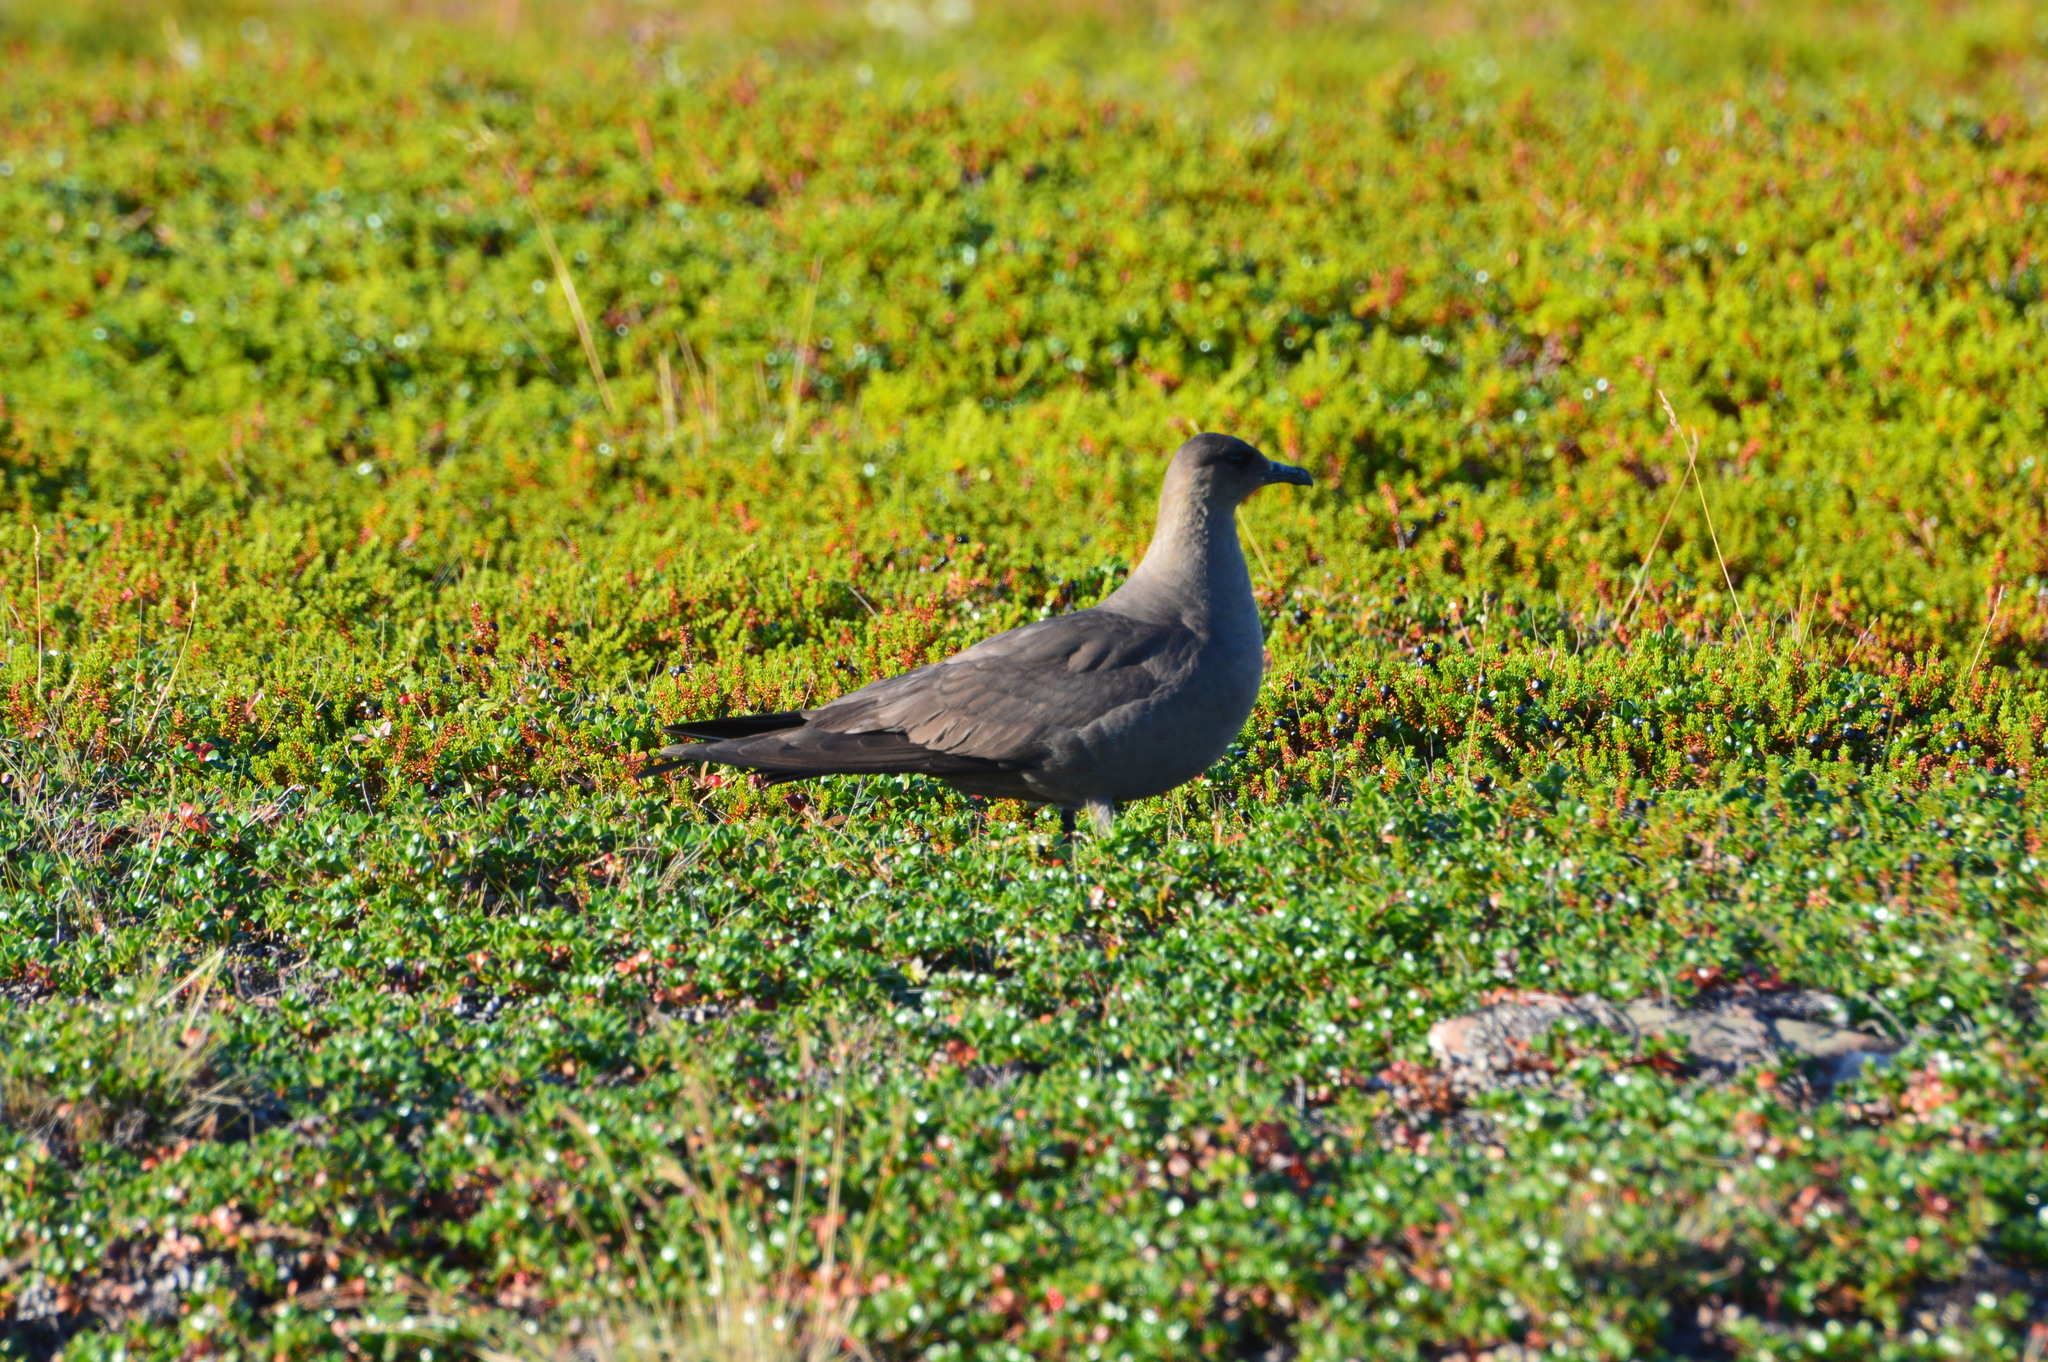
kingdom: Animalia
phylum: Chordata
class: Aves
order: Charadriiformes
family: Stercorariidae
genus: Stercorarius
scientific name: Stercorarius parasiticus
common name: Parasitic jaeger
